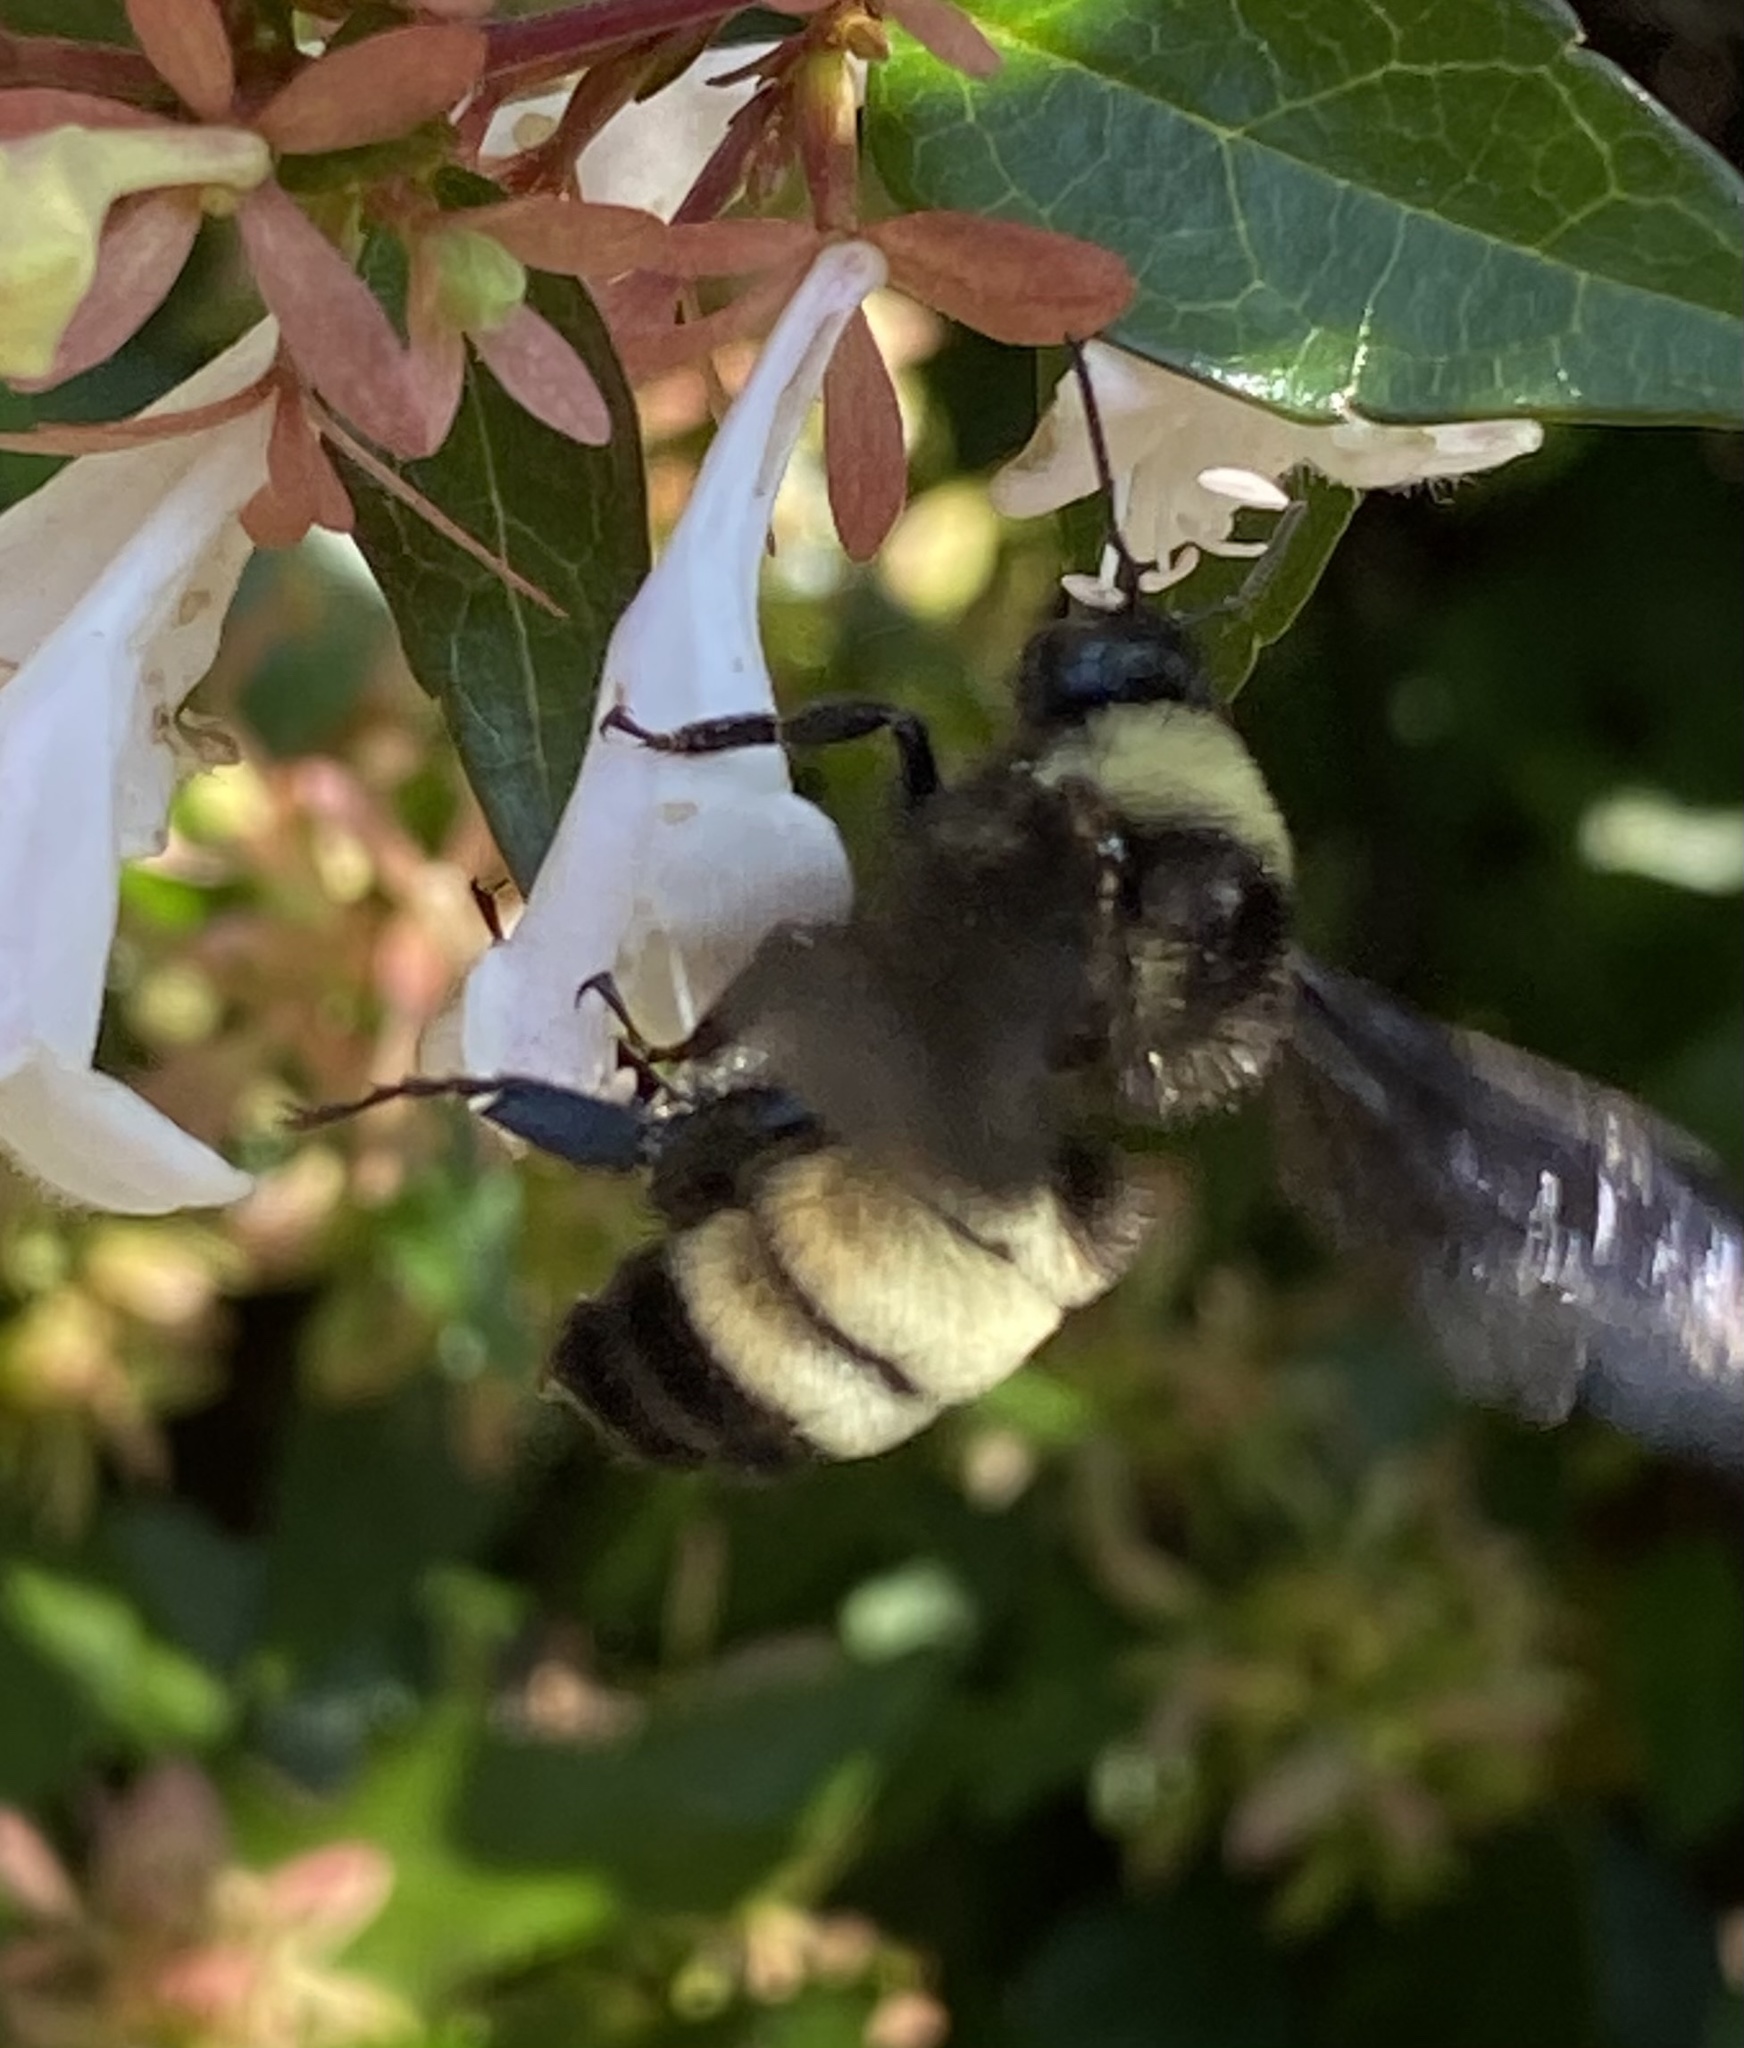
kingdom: Animalia
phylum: Arthropoda
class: Insecta
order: Hymenoptera
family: Apidae
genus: Bombus
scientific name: Bombus pensylvanicus
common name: Bumble bee
